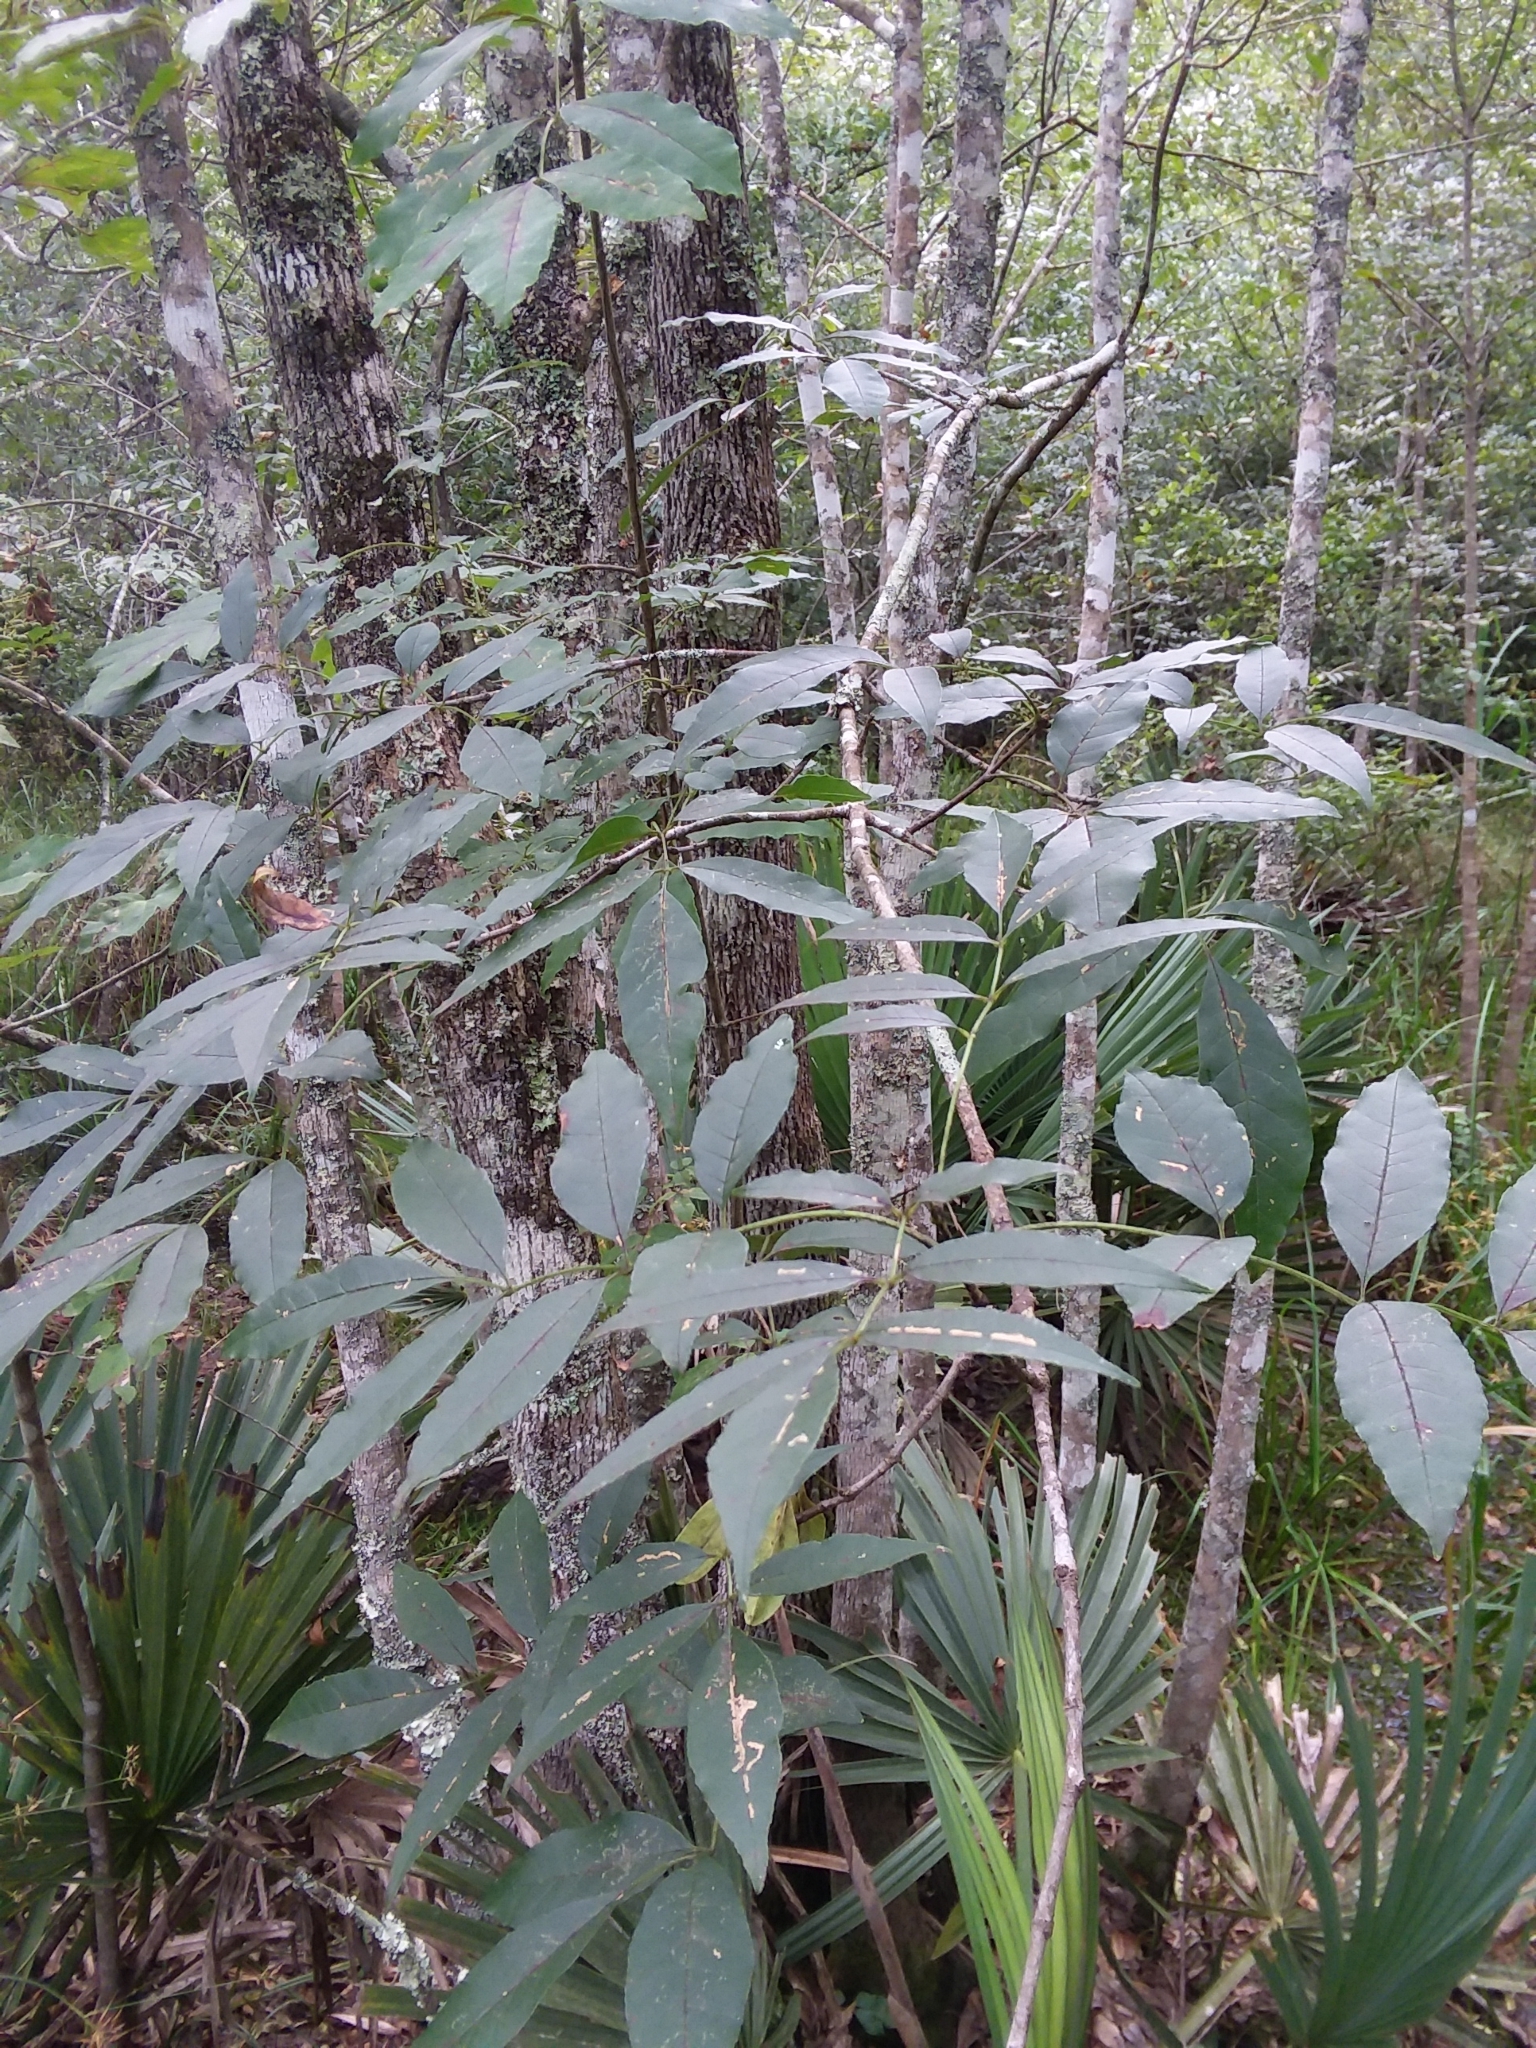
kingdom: Plantae
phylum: Tracheophyta
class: Magnoliopsida
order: Lamiales
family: Oleaceae
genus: Fraxinus
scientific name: Fraxinus caroliniana
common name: Carolina ash
